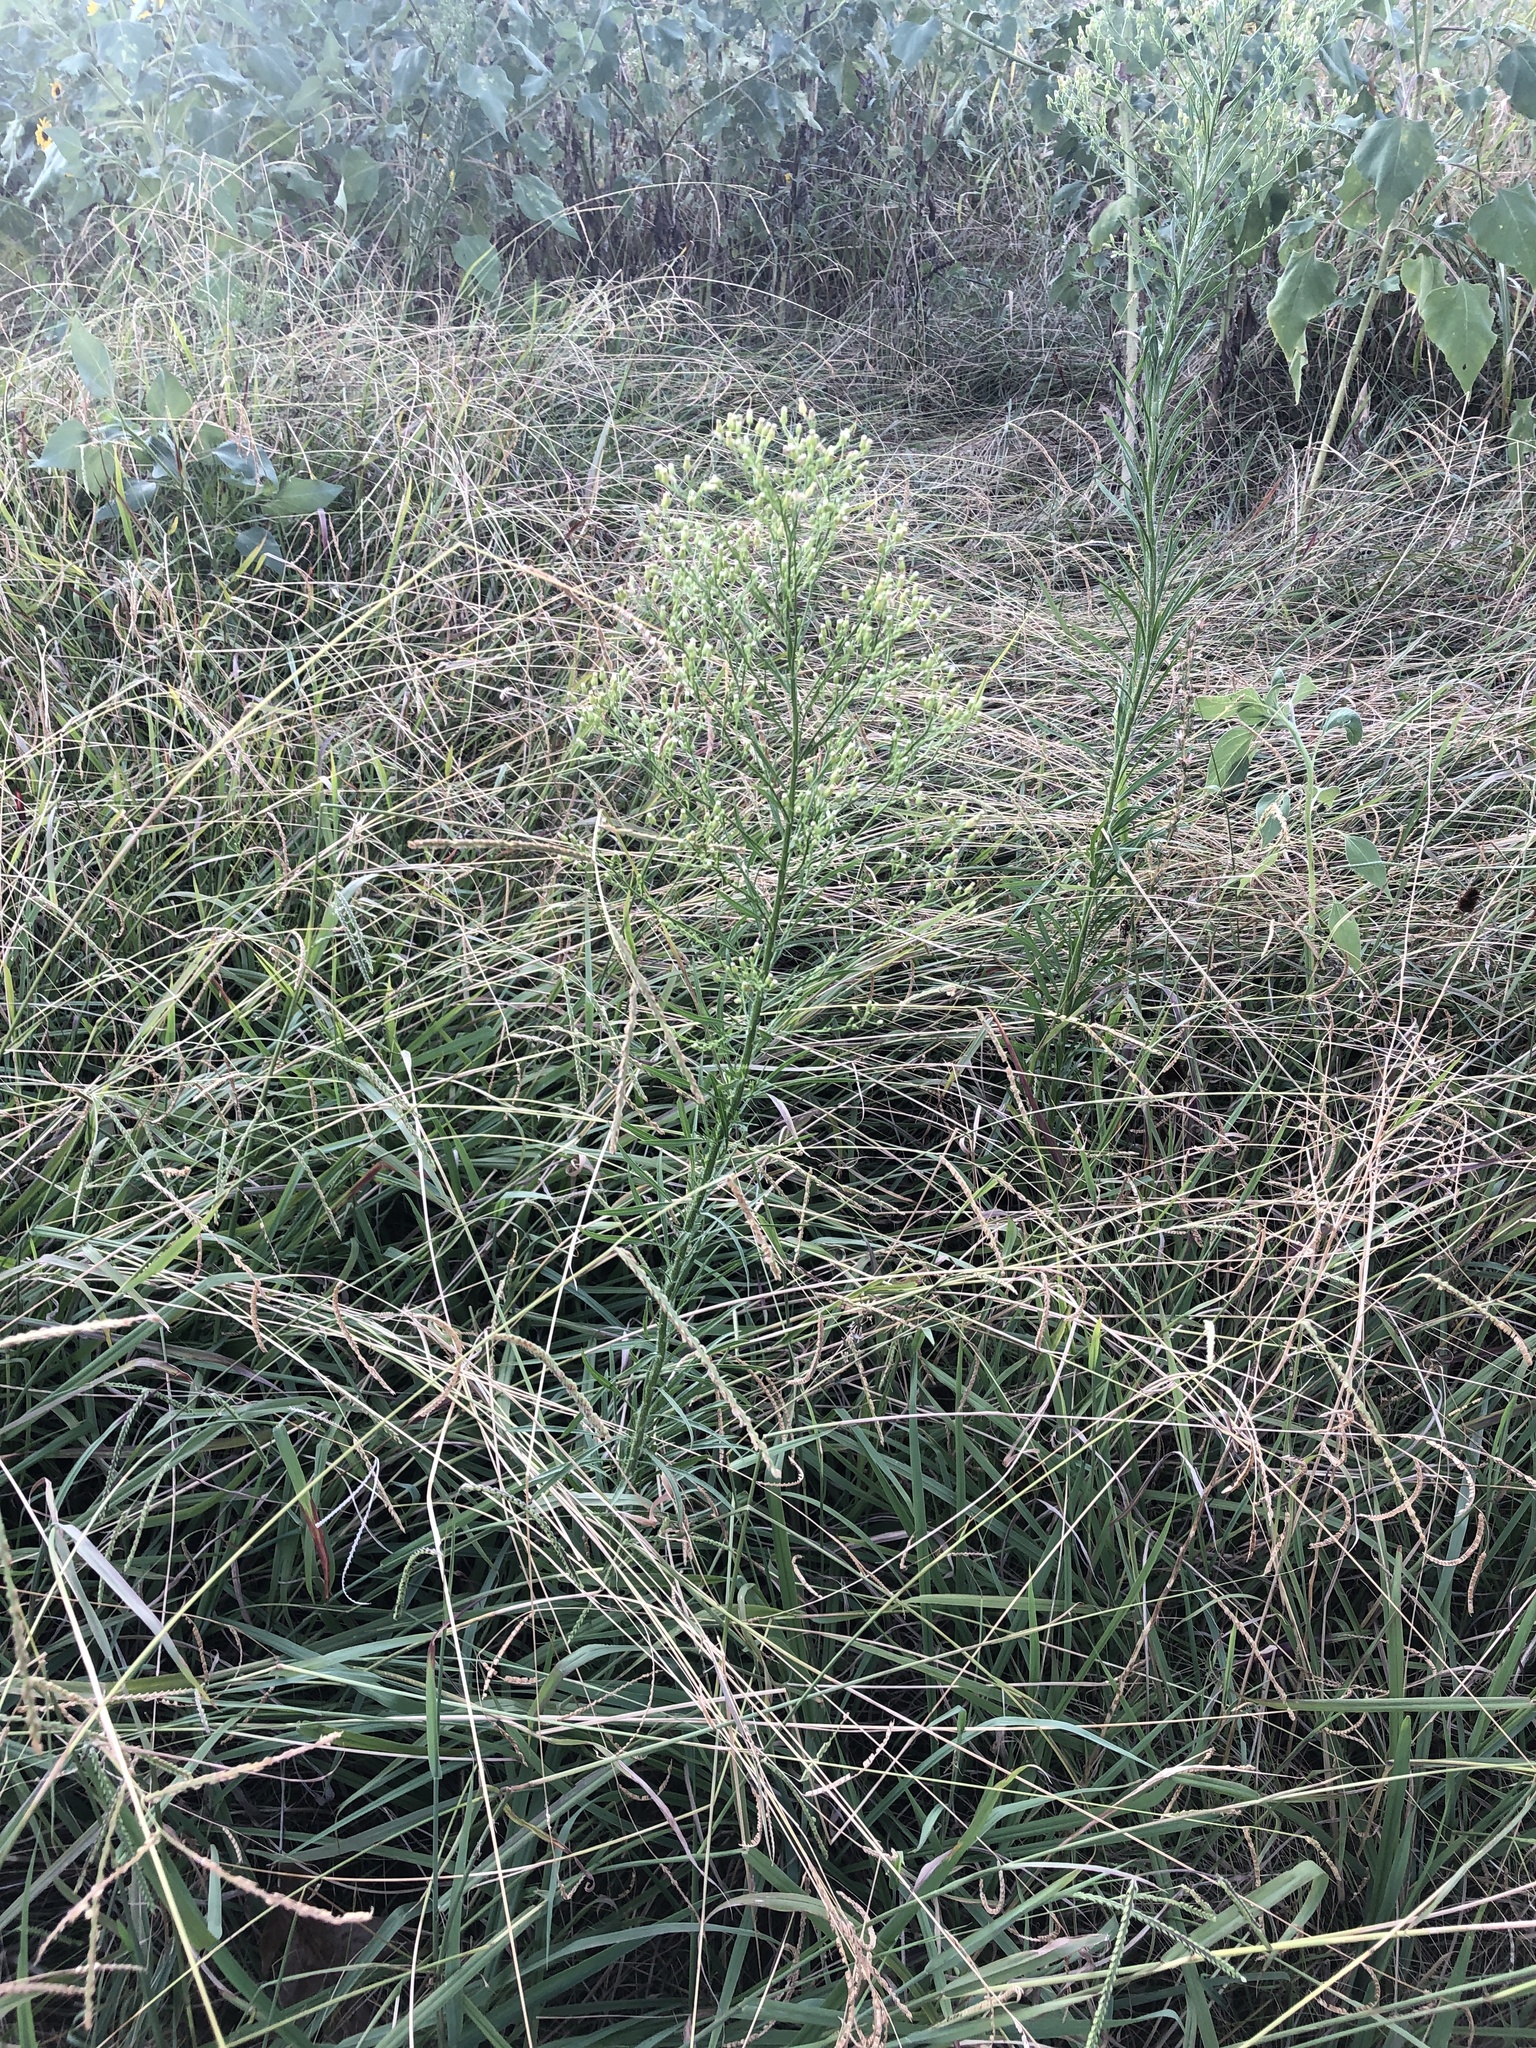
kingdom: Plantae
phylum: Tracheophyta
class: Magnoliopsida
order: Asterales
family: Asteraceae
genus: Erigeron
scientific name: Erigeron canadensis
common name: Canadian fleabane
